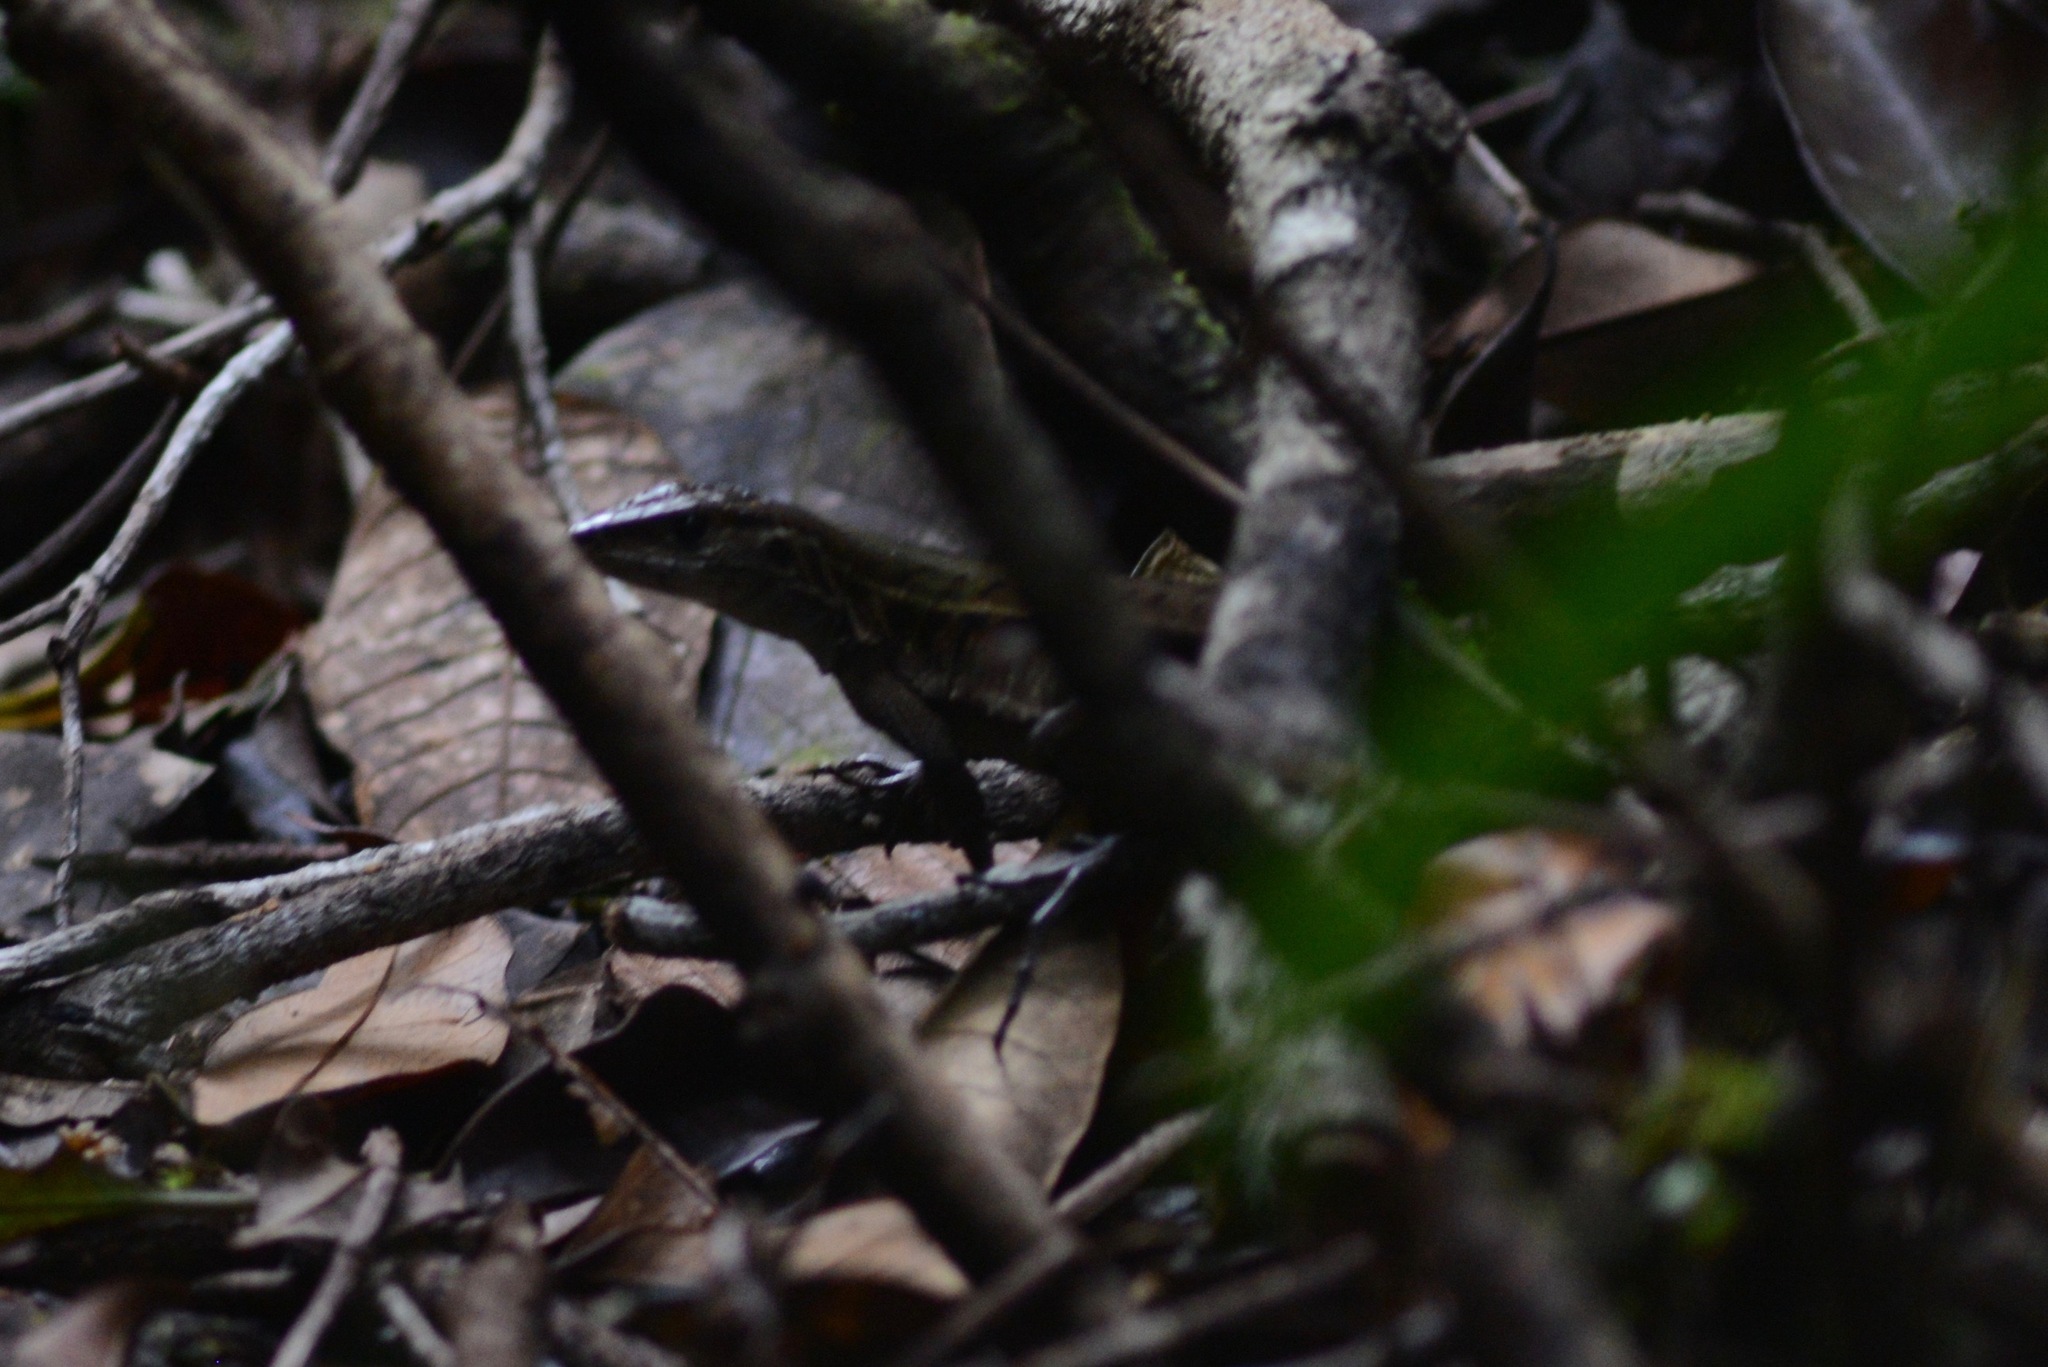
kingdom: Animalia
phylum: Chordata
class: Squamata
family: Teiidae
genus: Kentropyx
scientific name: Kentropyx calcarata
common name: Striped forest whiptail
